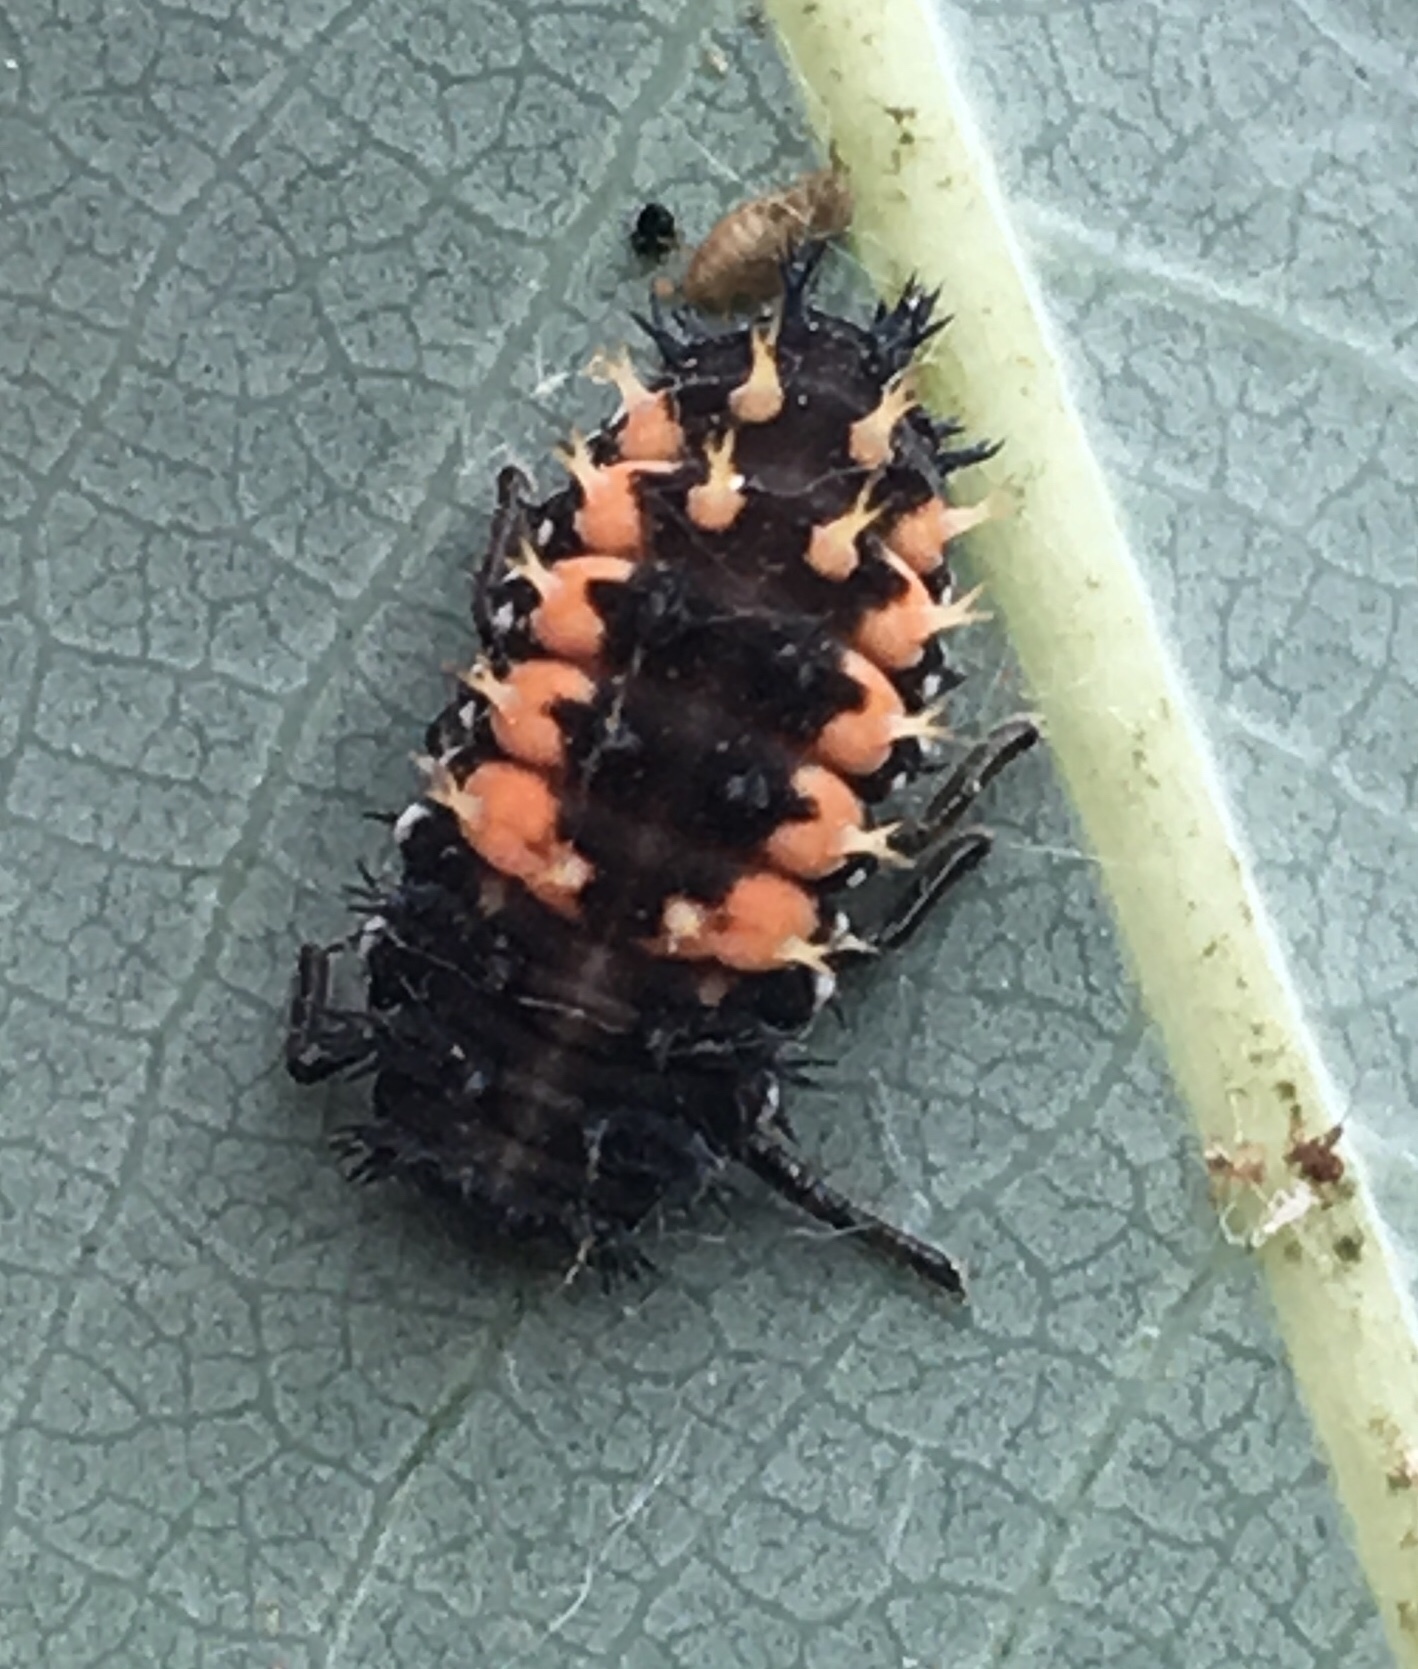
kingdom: Animalia
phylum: Arthropoda
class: Insecta
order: Coleoptera
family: Coccinellidae
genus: Harmonia
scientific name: Harmonia axyridis
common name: Harlequin ladybird
